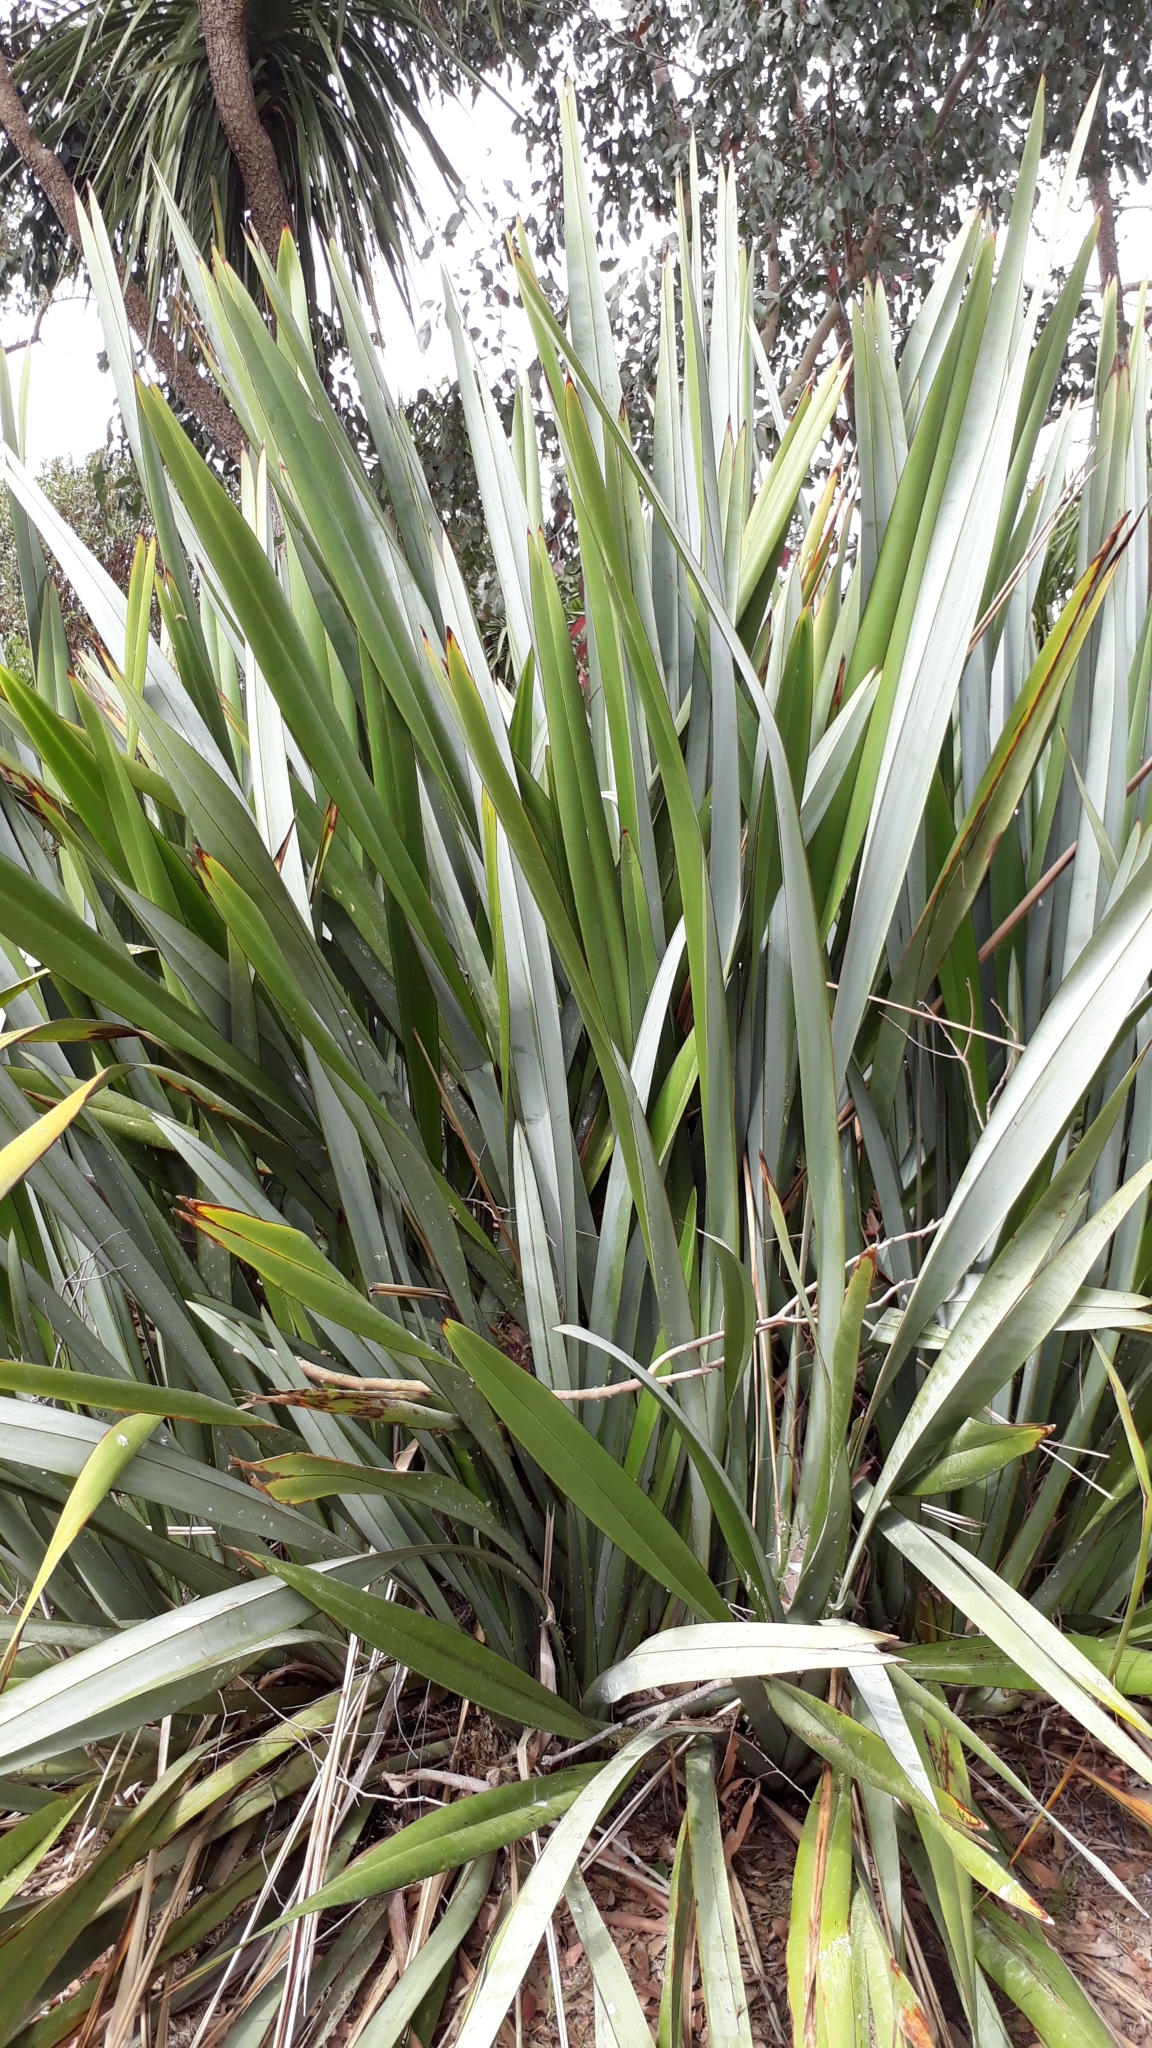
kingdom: Plantae
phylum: Tracheophyta
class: Liliopsida
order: Asparagales
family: Asphodelaceae
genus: Phormium
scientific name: Phormium tenax
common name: New zealand flax
